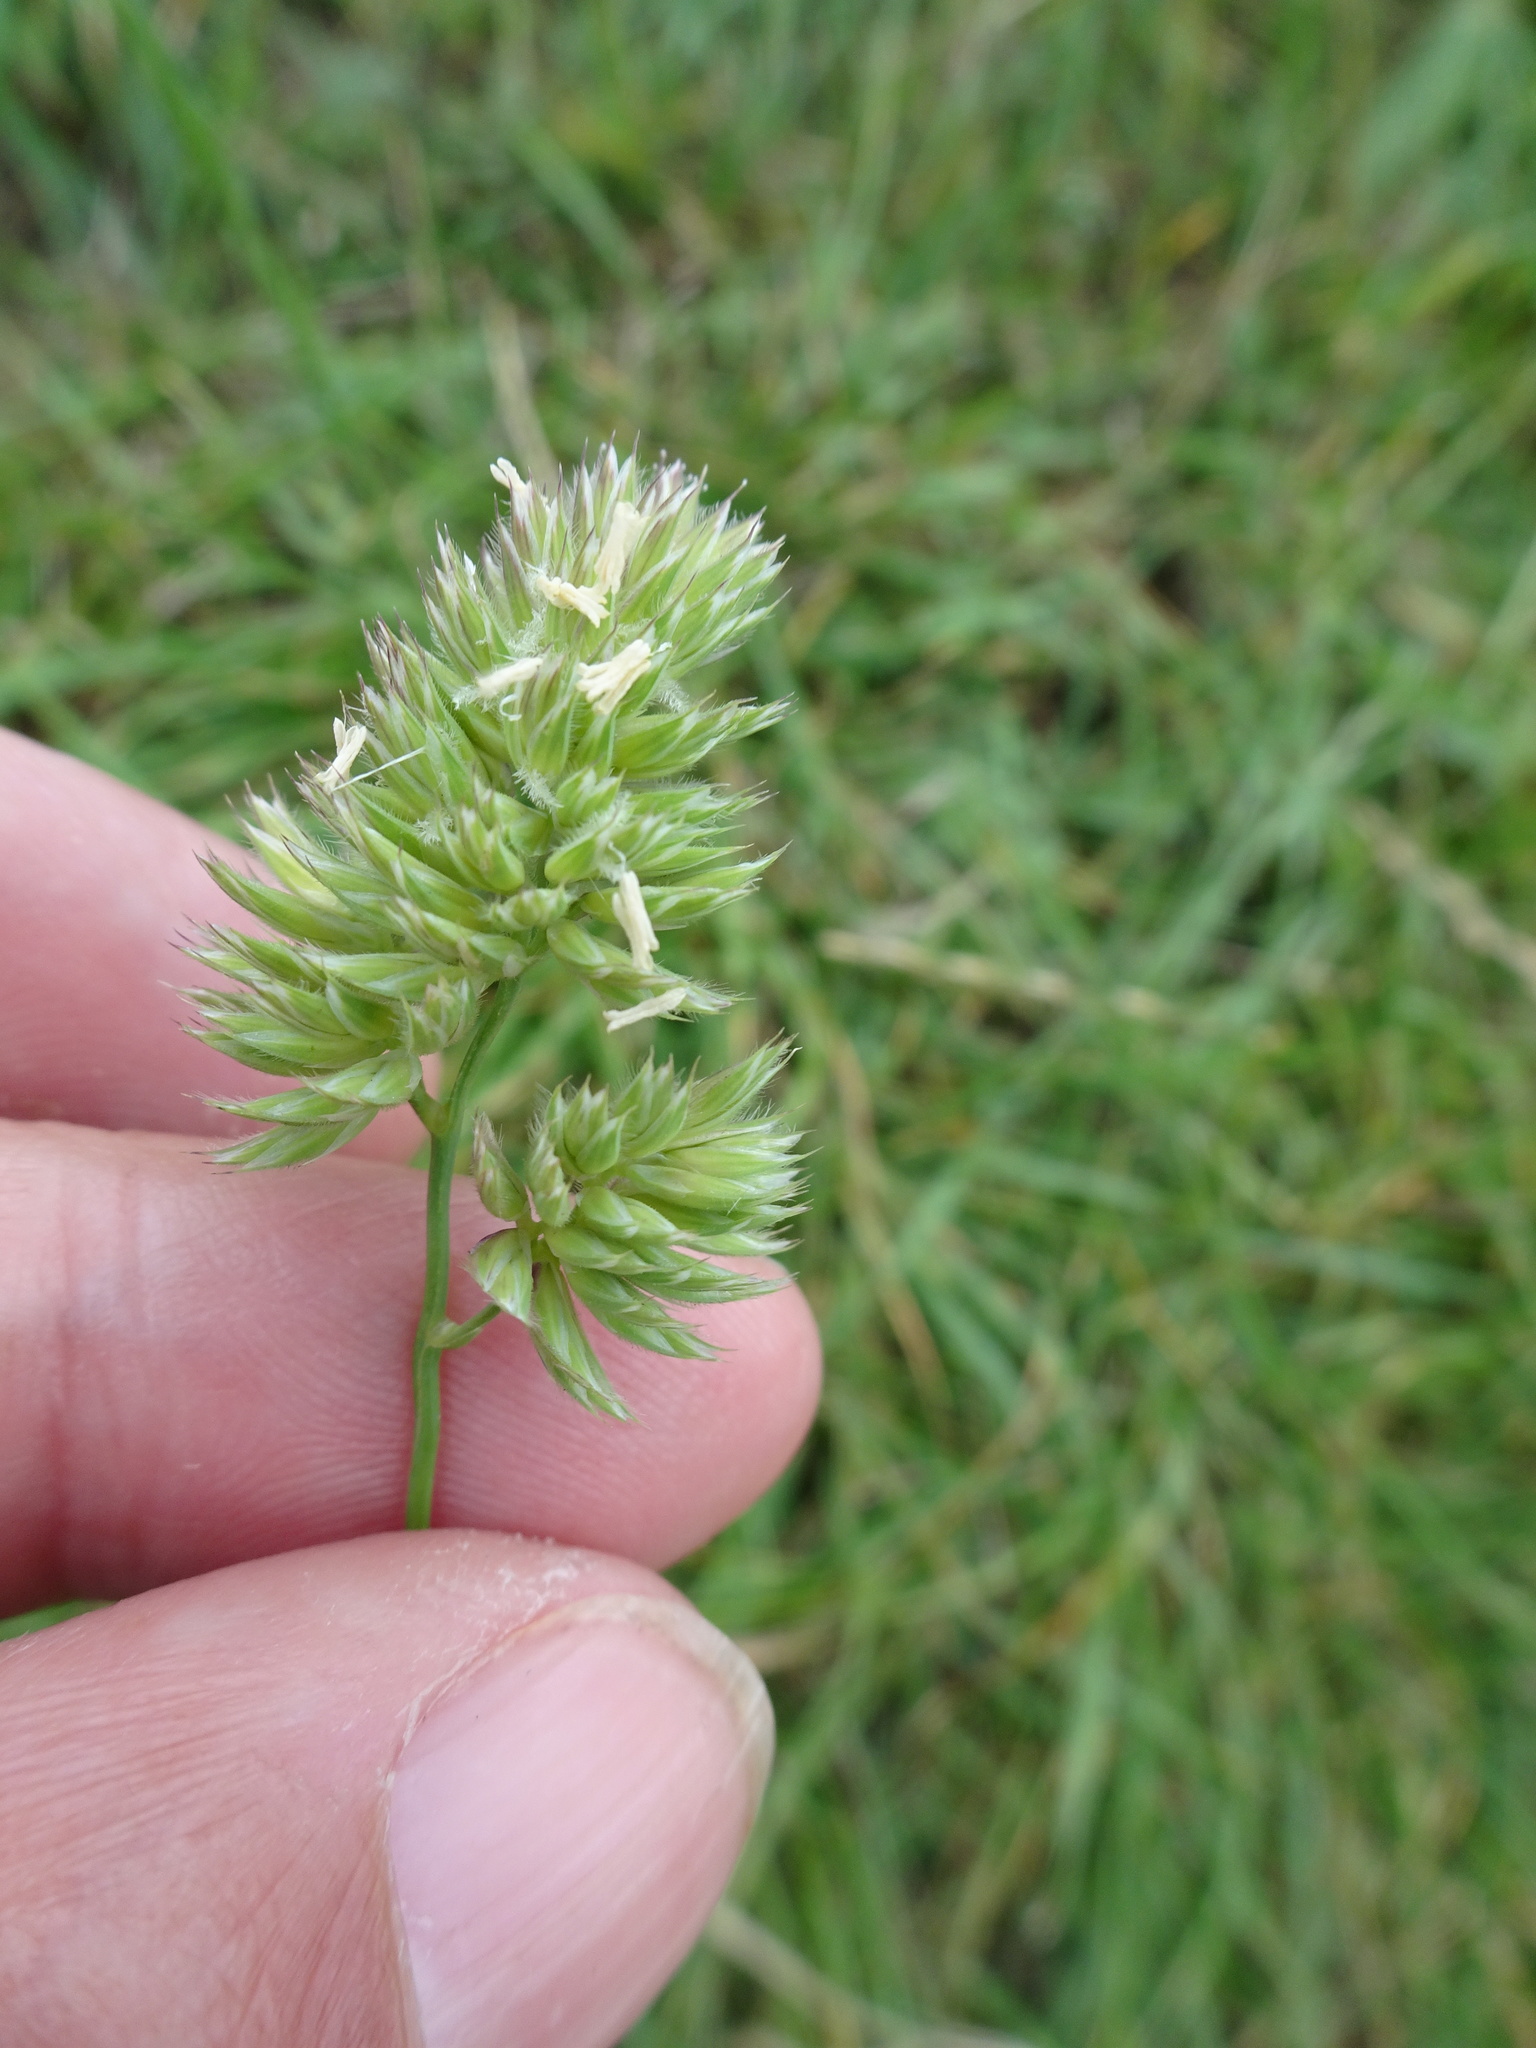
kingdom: Plantae
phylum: Tracheophyta
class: Liliopsida
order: Poales
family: Poaceae
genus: Dactylis
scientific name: Dactylis glomerata
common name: Orchardgrass
